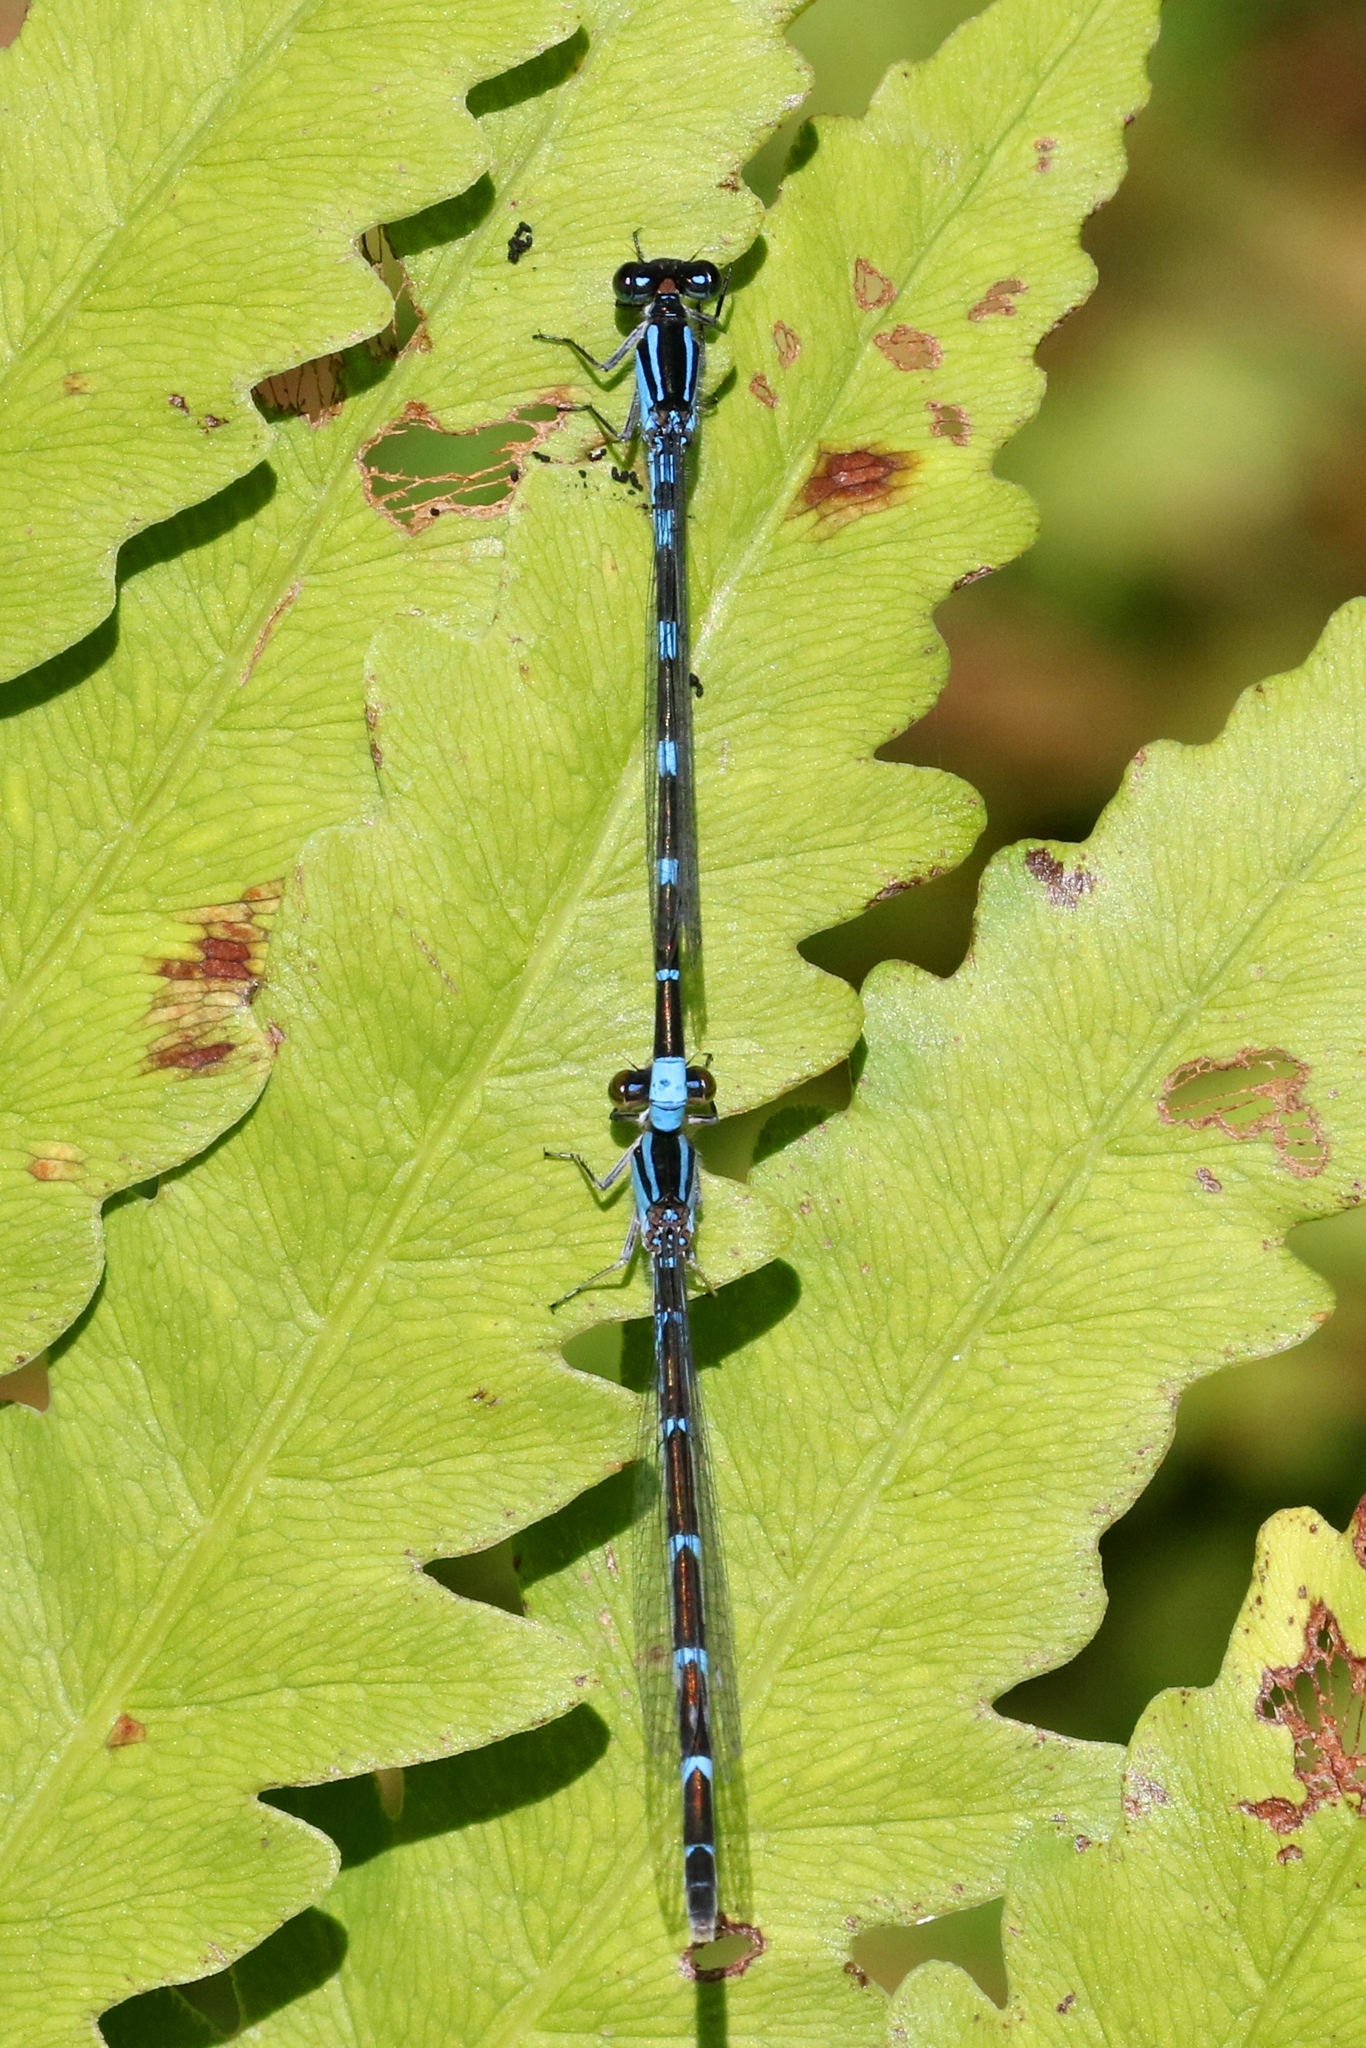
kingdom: Animalia
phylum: Arthropoda
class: Insecta
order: Odonata
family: Coenagrionidae
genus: Enallagma
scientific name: Enallagma carunculatum
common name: Tule bluet
